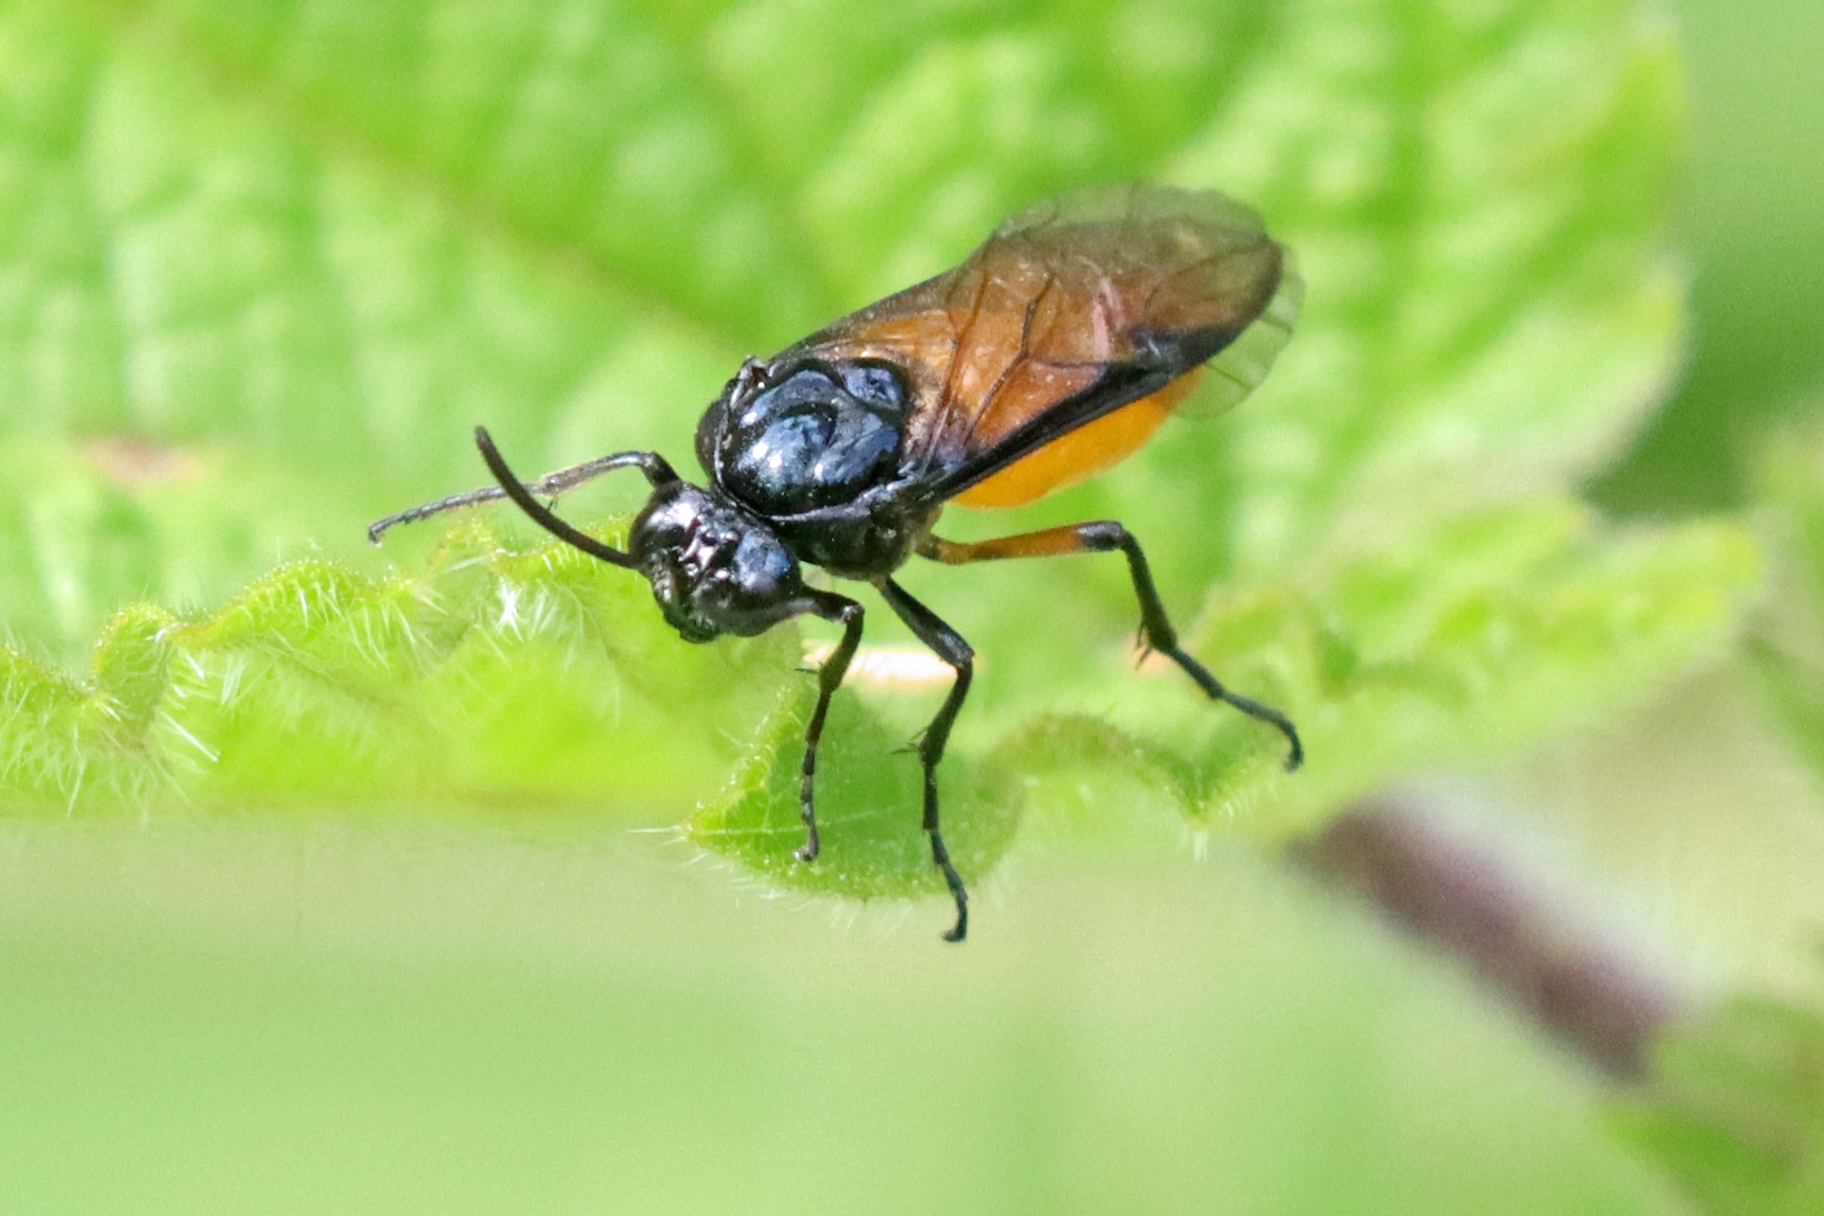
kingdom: Animalia
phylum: Arthropoda
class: Insecta
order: Hymenoptera
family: Argidae
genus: Arge
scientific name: Arge pagana
